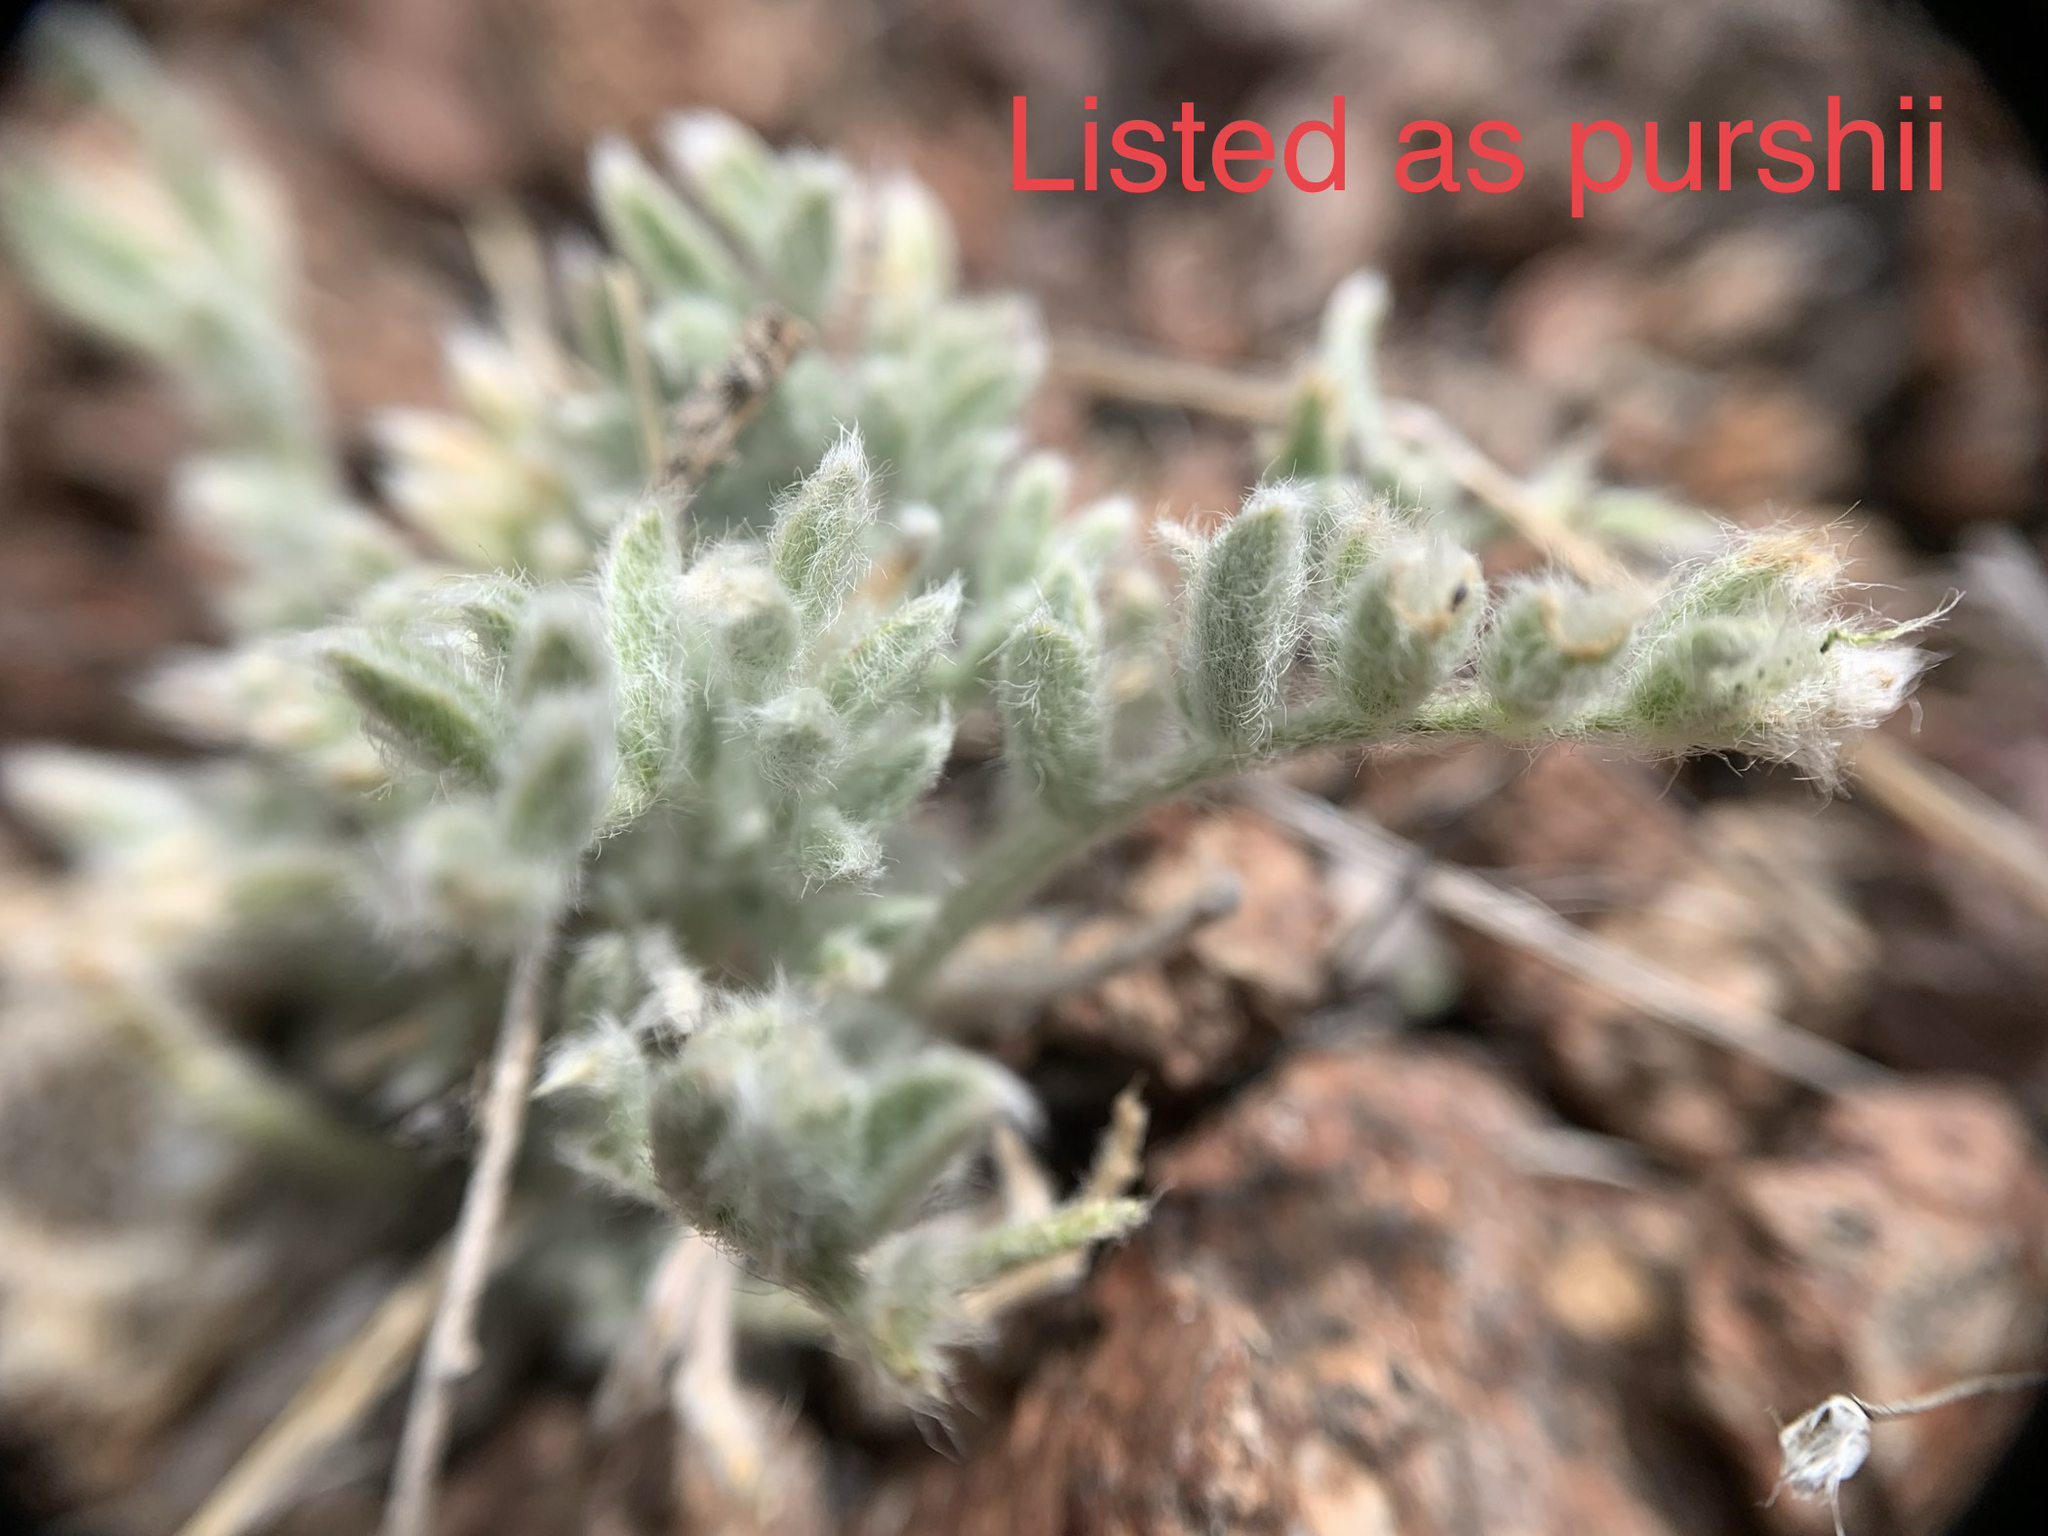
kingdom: Plantae
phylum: Tracheophyta
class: Magnoliopsida
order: Fabales
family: Fabaceae
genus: Astragalus
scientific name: Astragalus purshii
